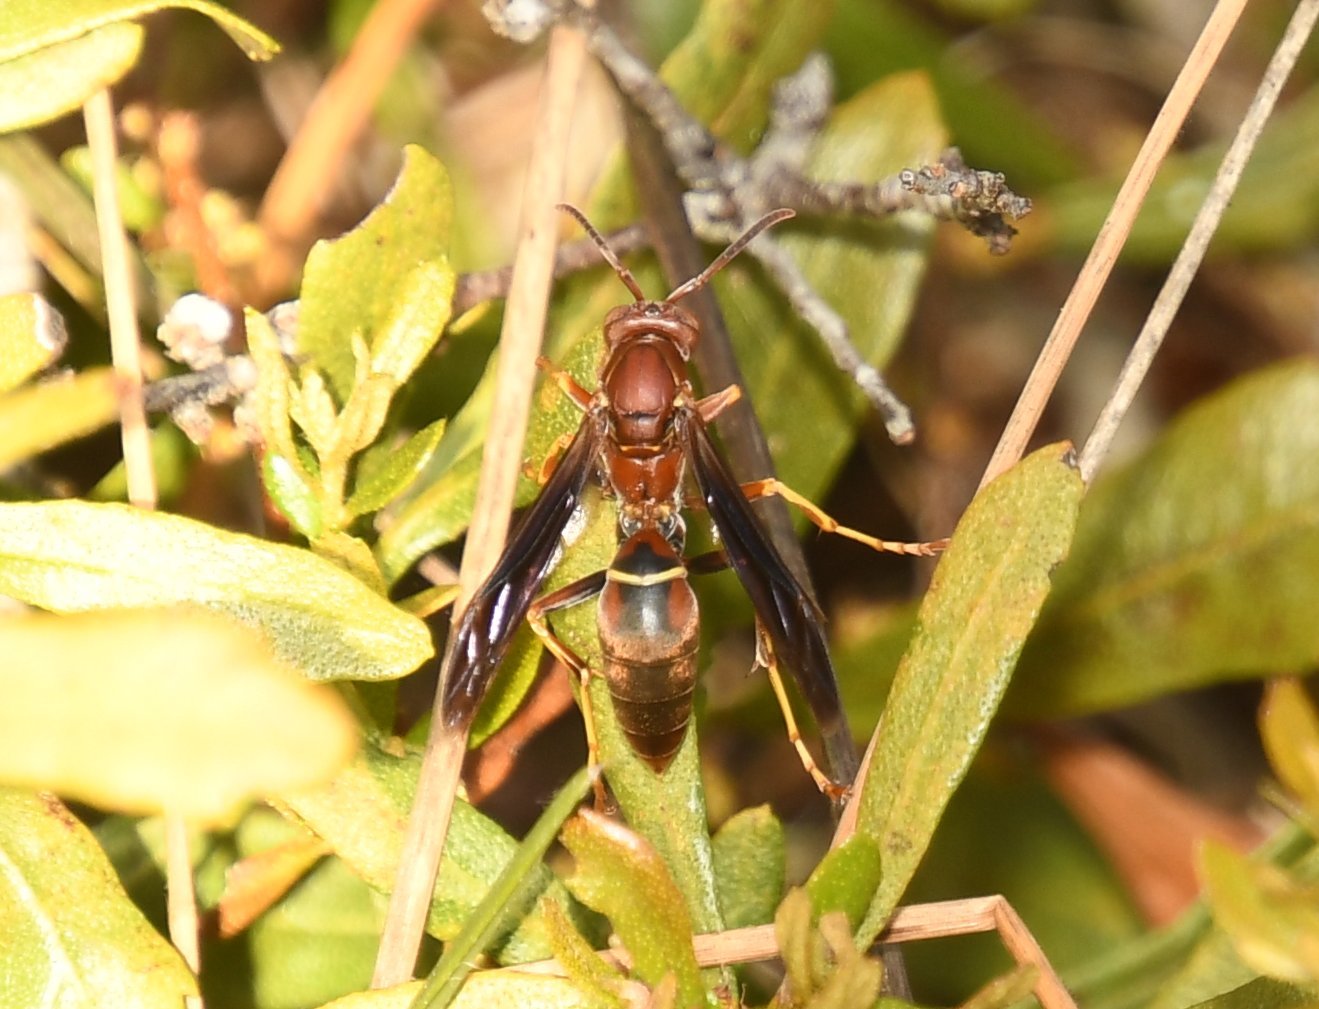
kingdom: Animalia
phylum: Arthropoda
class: Insecta
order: Hymenoptera
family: Eumenidae
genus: Polistes
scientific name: Polistes fuscatus
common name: Dark paper wasp
